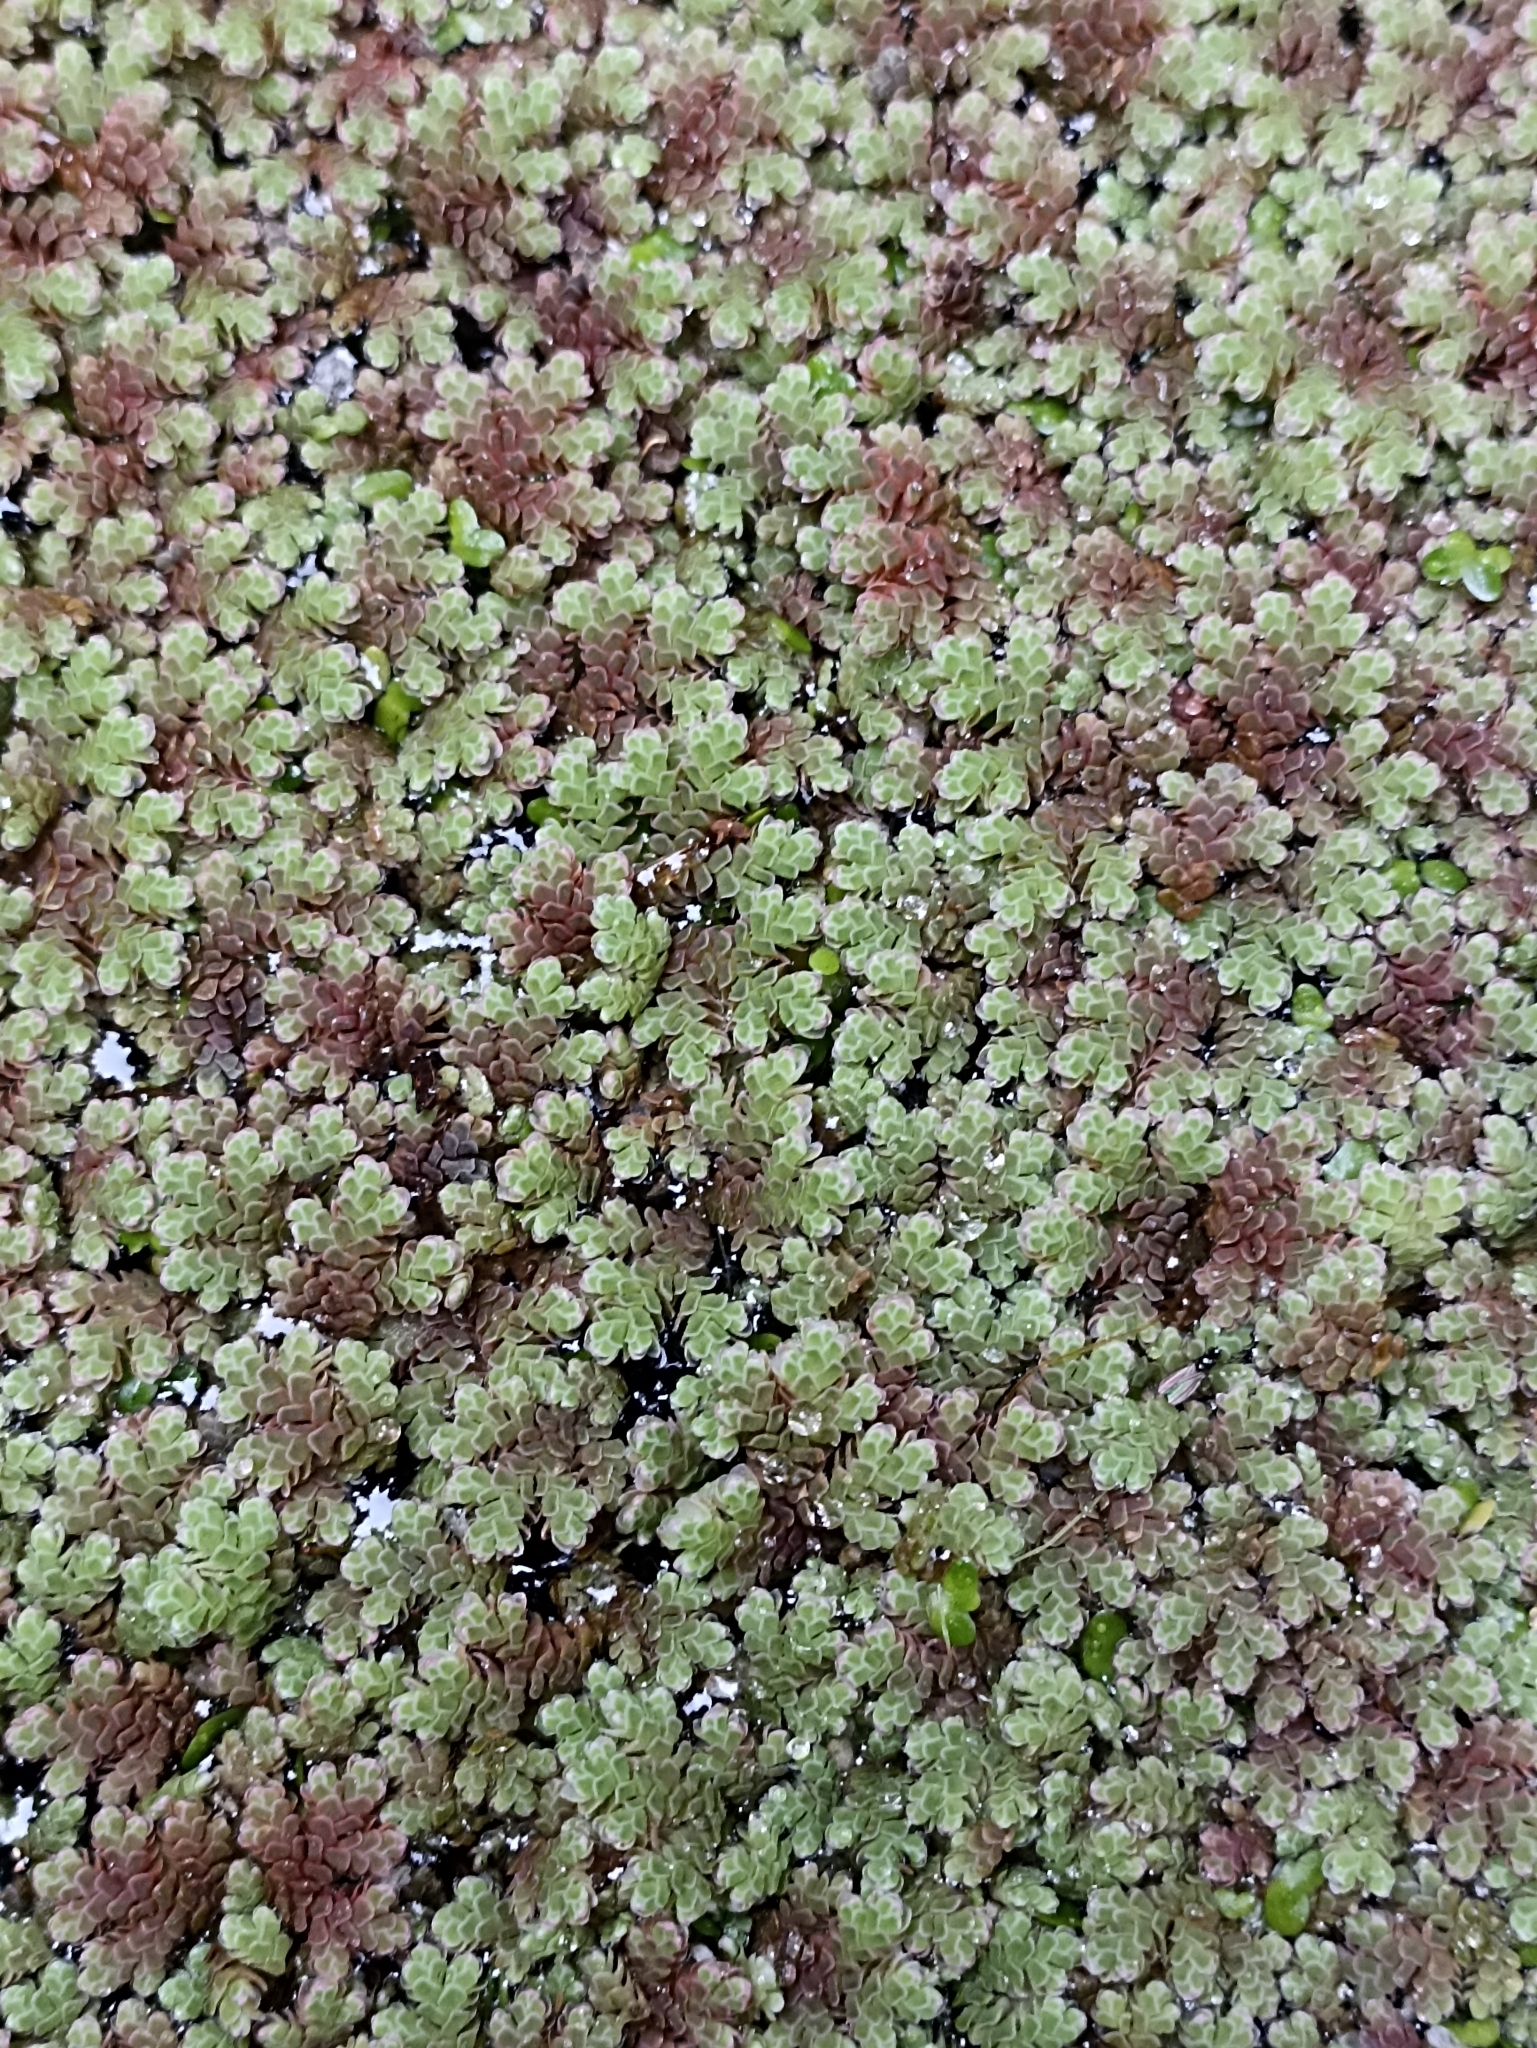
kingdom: Plantae
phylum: Tracheophyta
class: Polypodiopsida
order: Salviniales
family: Salviniaceae
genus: Azolla
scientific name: Azolla rubra
